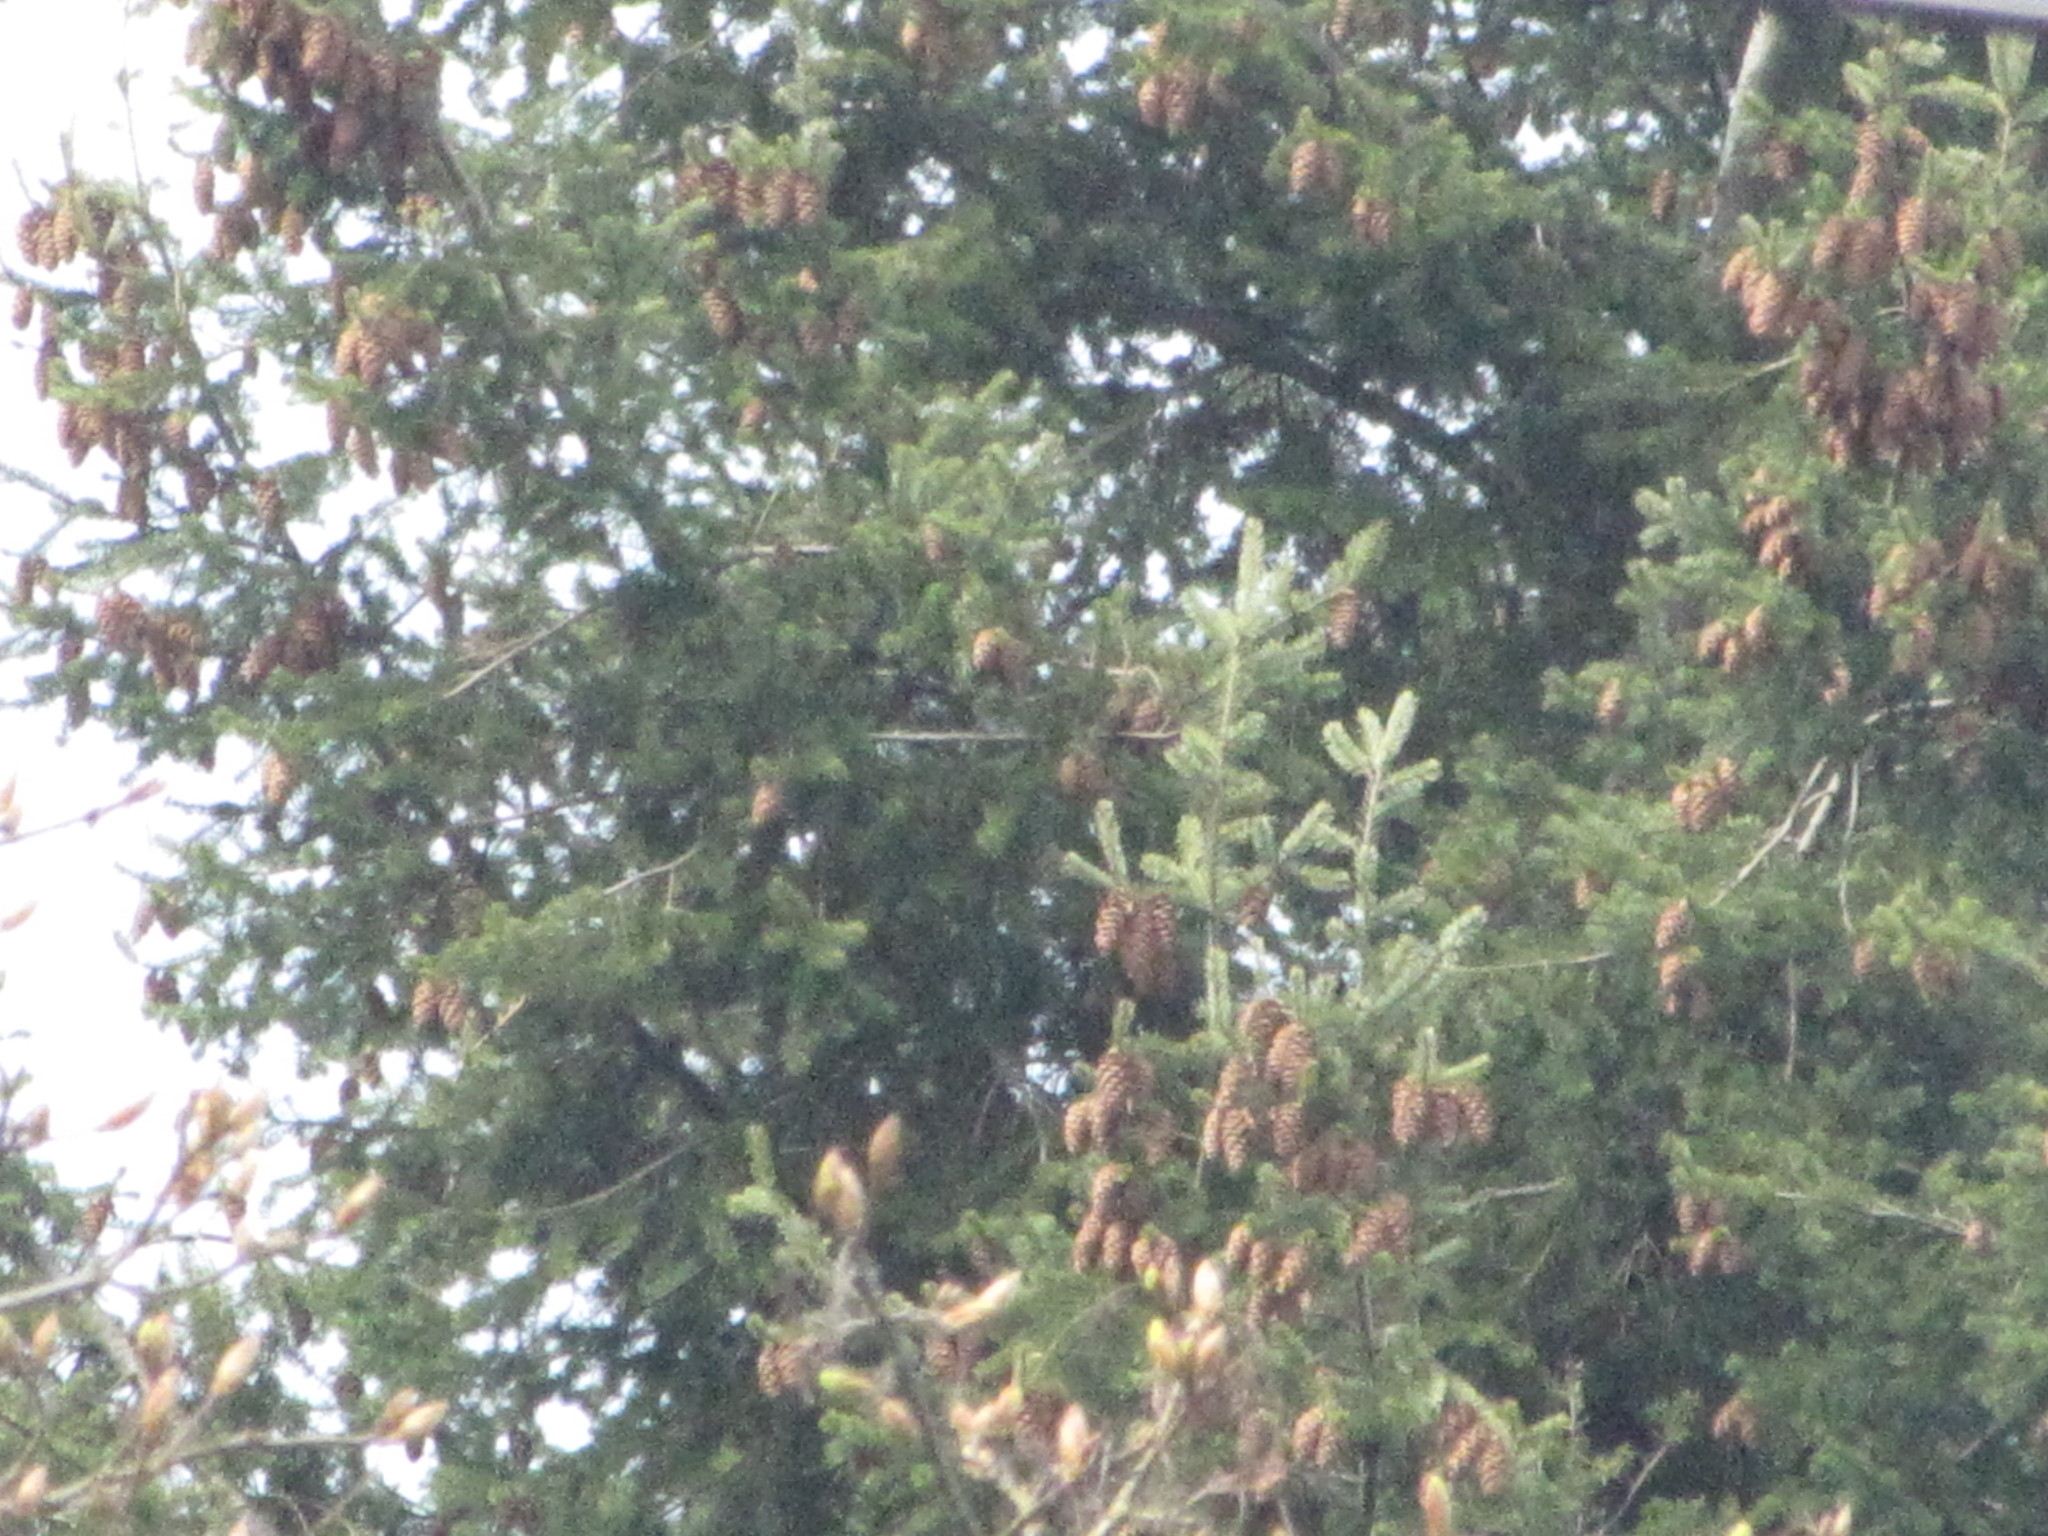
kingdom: Plantae
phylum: Tracheophyta
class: Pinopsida
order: Pinales
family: Pinaceae
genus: Pseudotsuga
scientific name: Pseudotsuga menziesii
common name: Douglas fir
